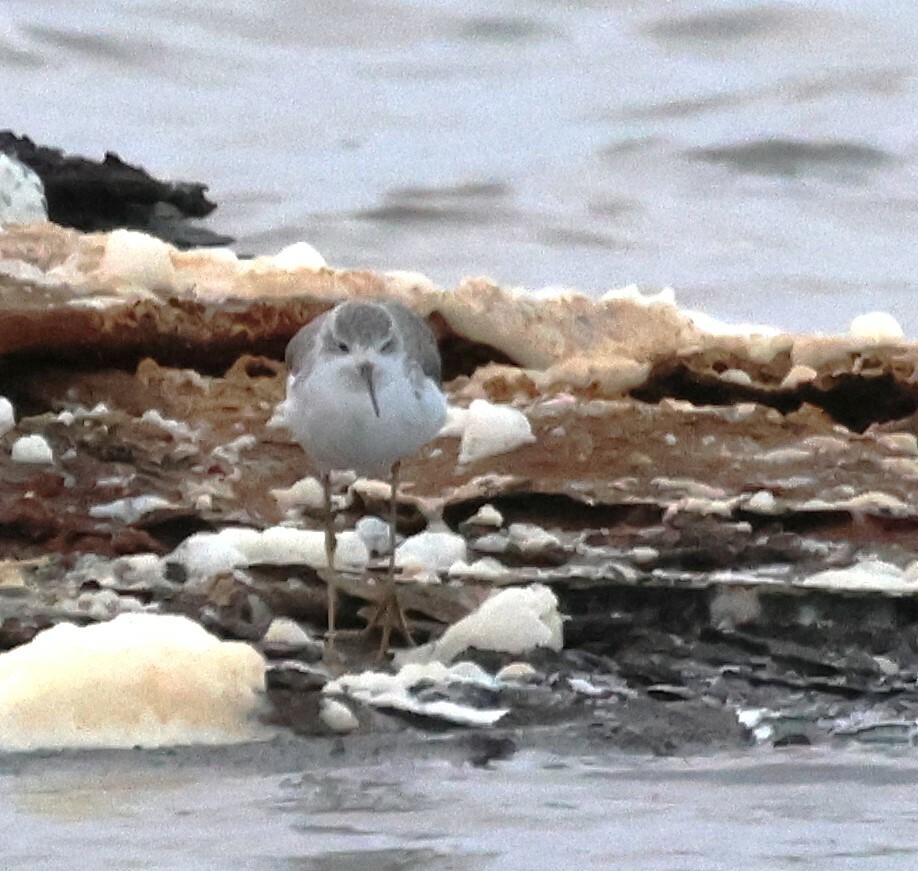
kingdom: Animalia
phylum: Chordata
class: Aves
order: Charadriiformes
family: Scolopacidae
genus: Tringa
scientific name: Tringa stagnatilis
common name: Marsh sandpiper
